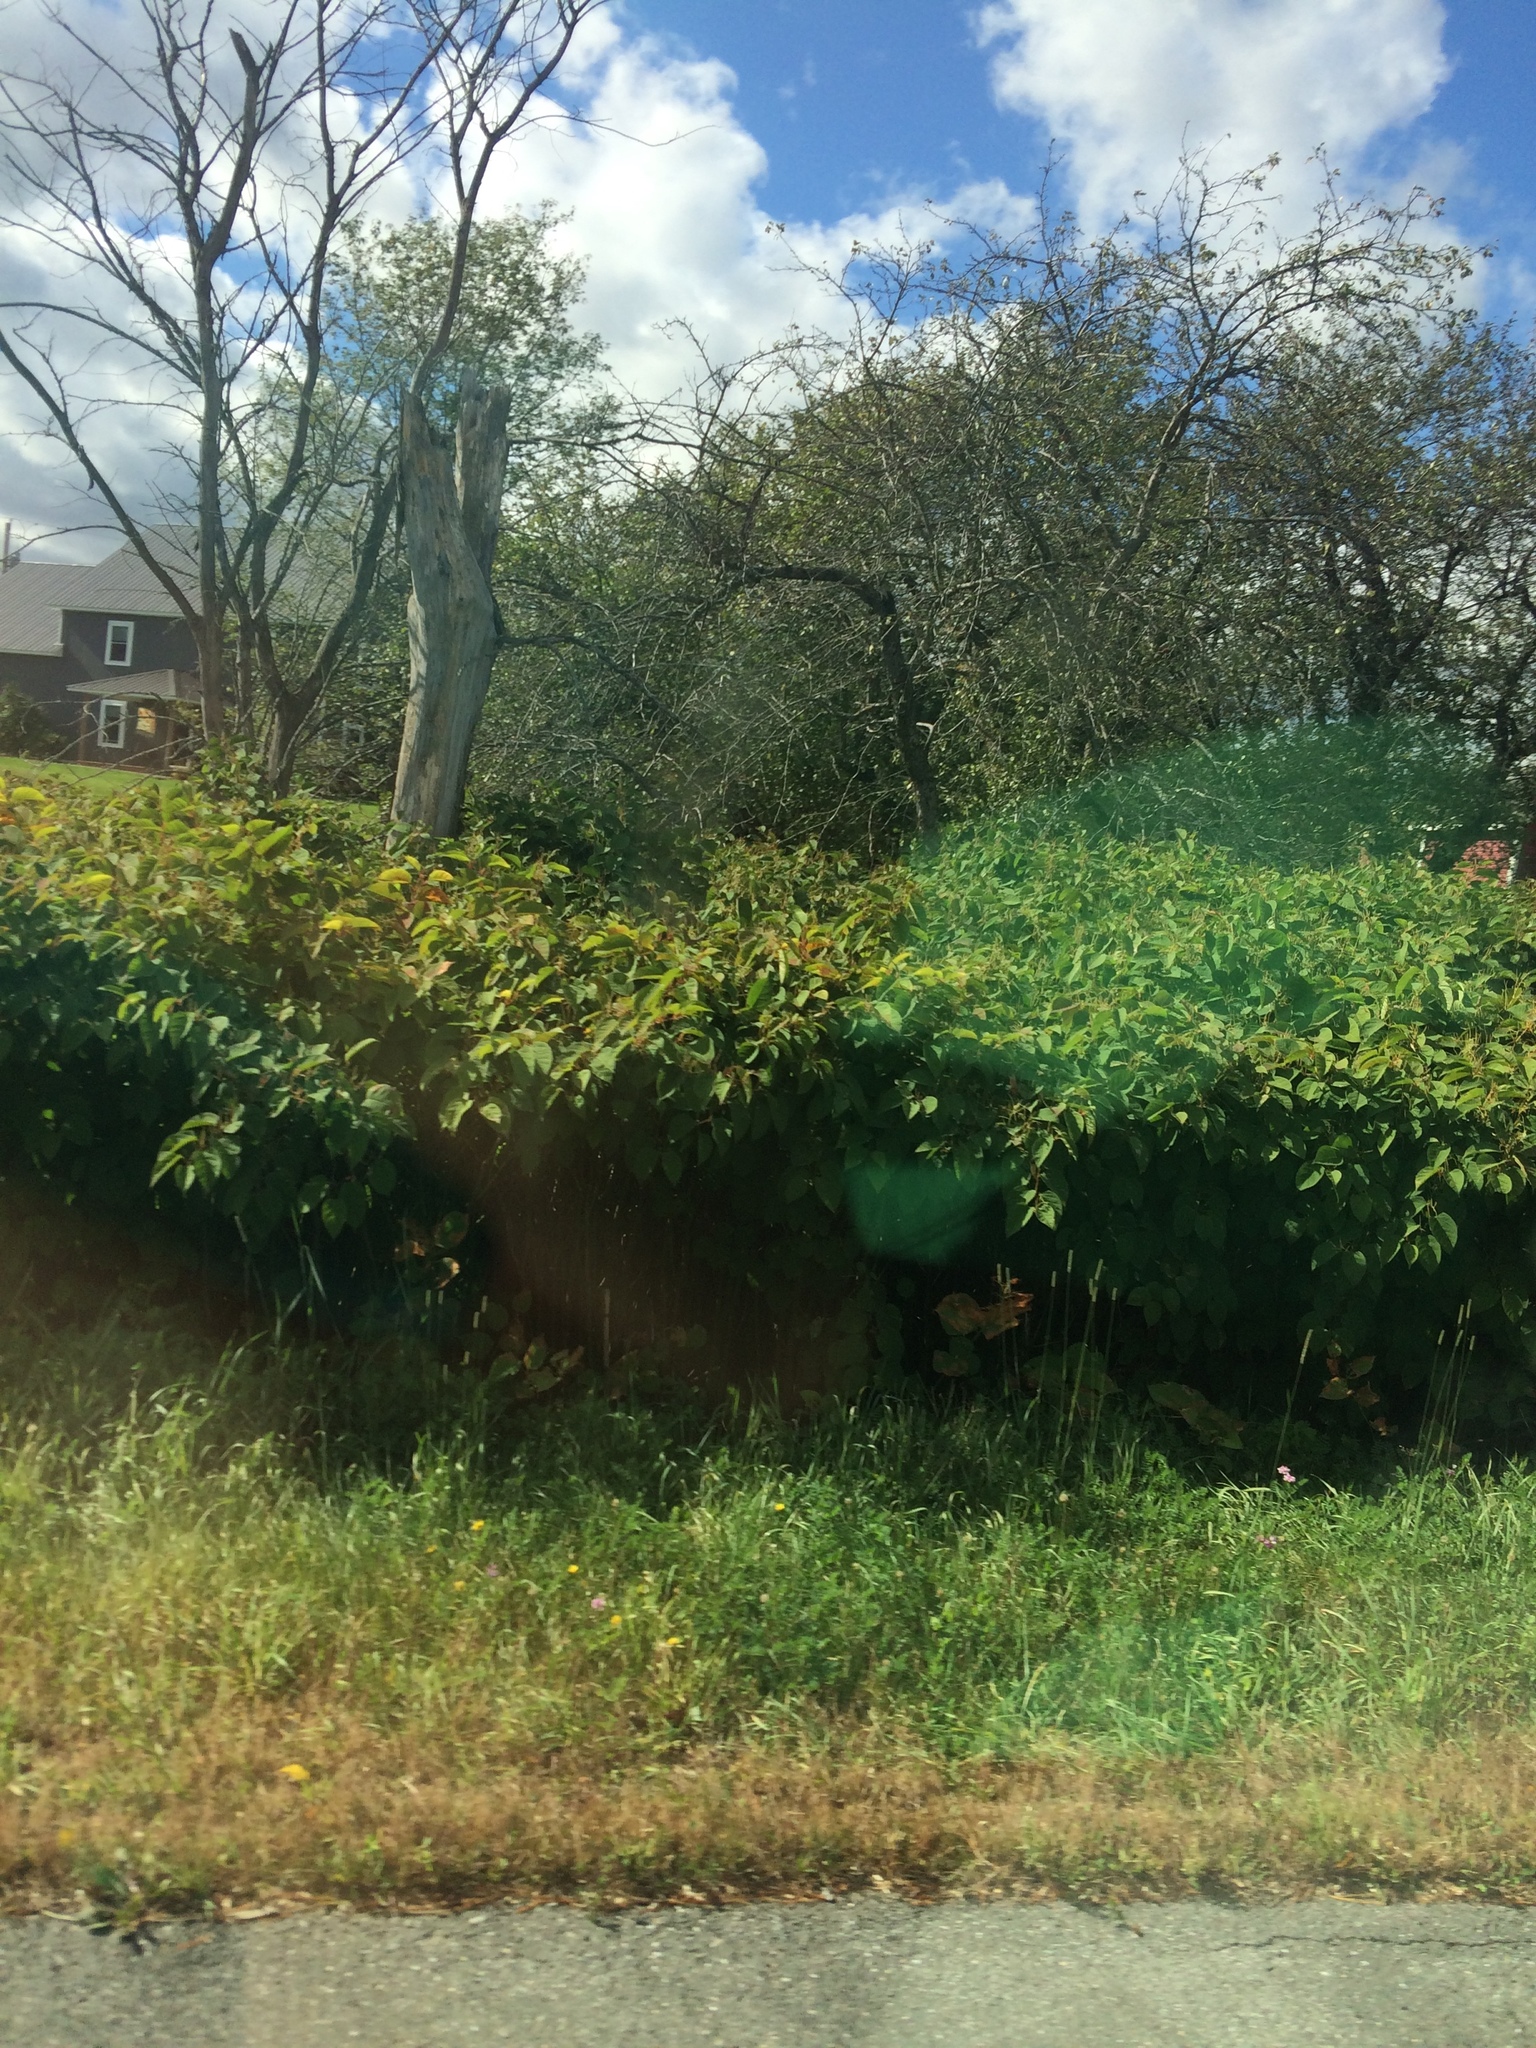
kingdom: Plantae
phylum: Tracheophyta
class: Magnoliopsida
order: Caryophyllales
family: Polygonaceae
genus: Reynoutria
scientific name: Reynoutria japonica
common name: Japanese knotweed
